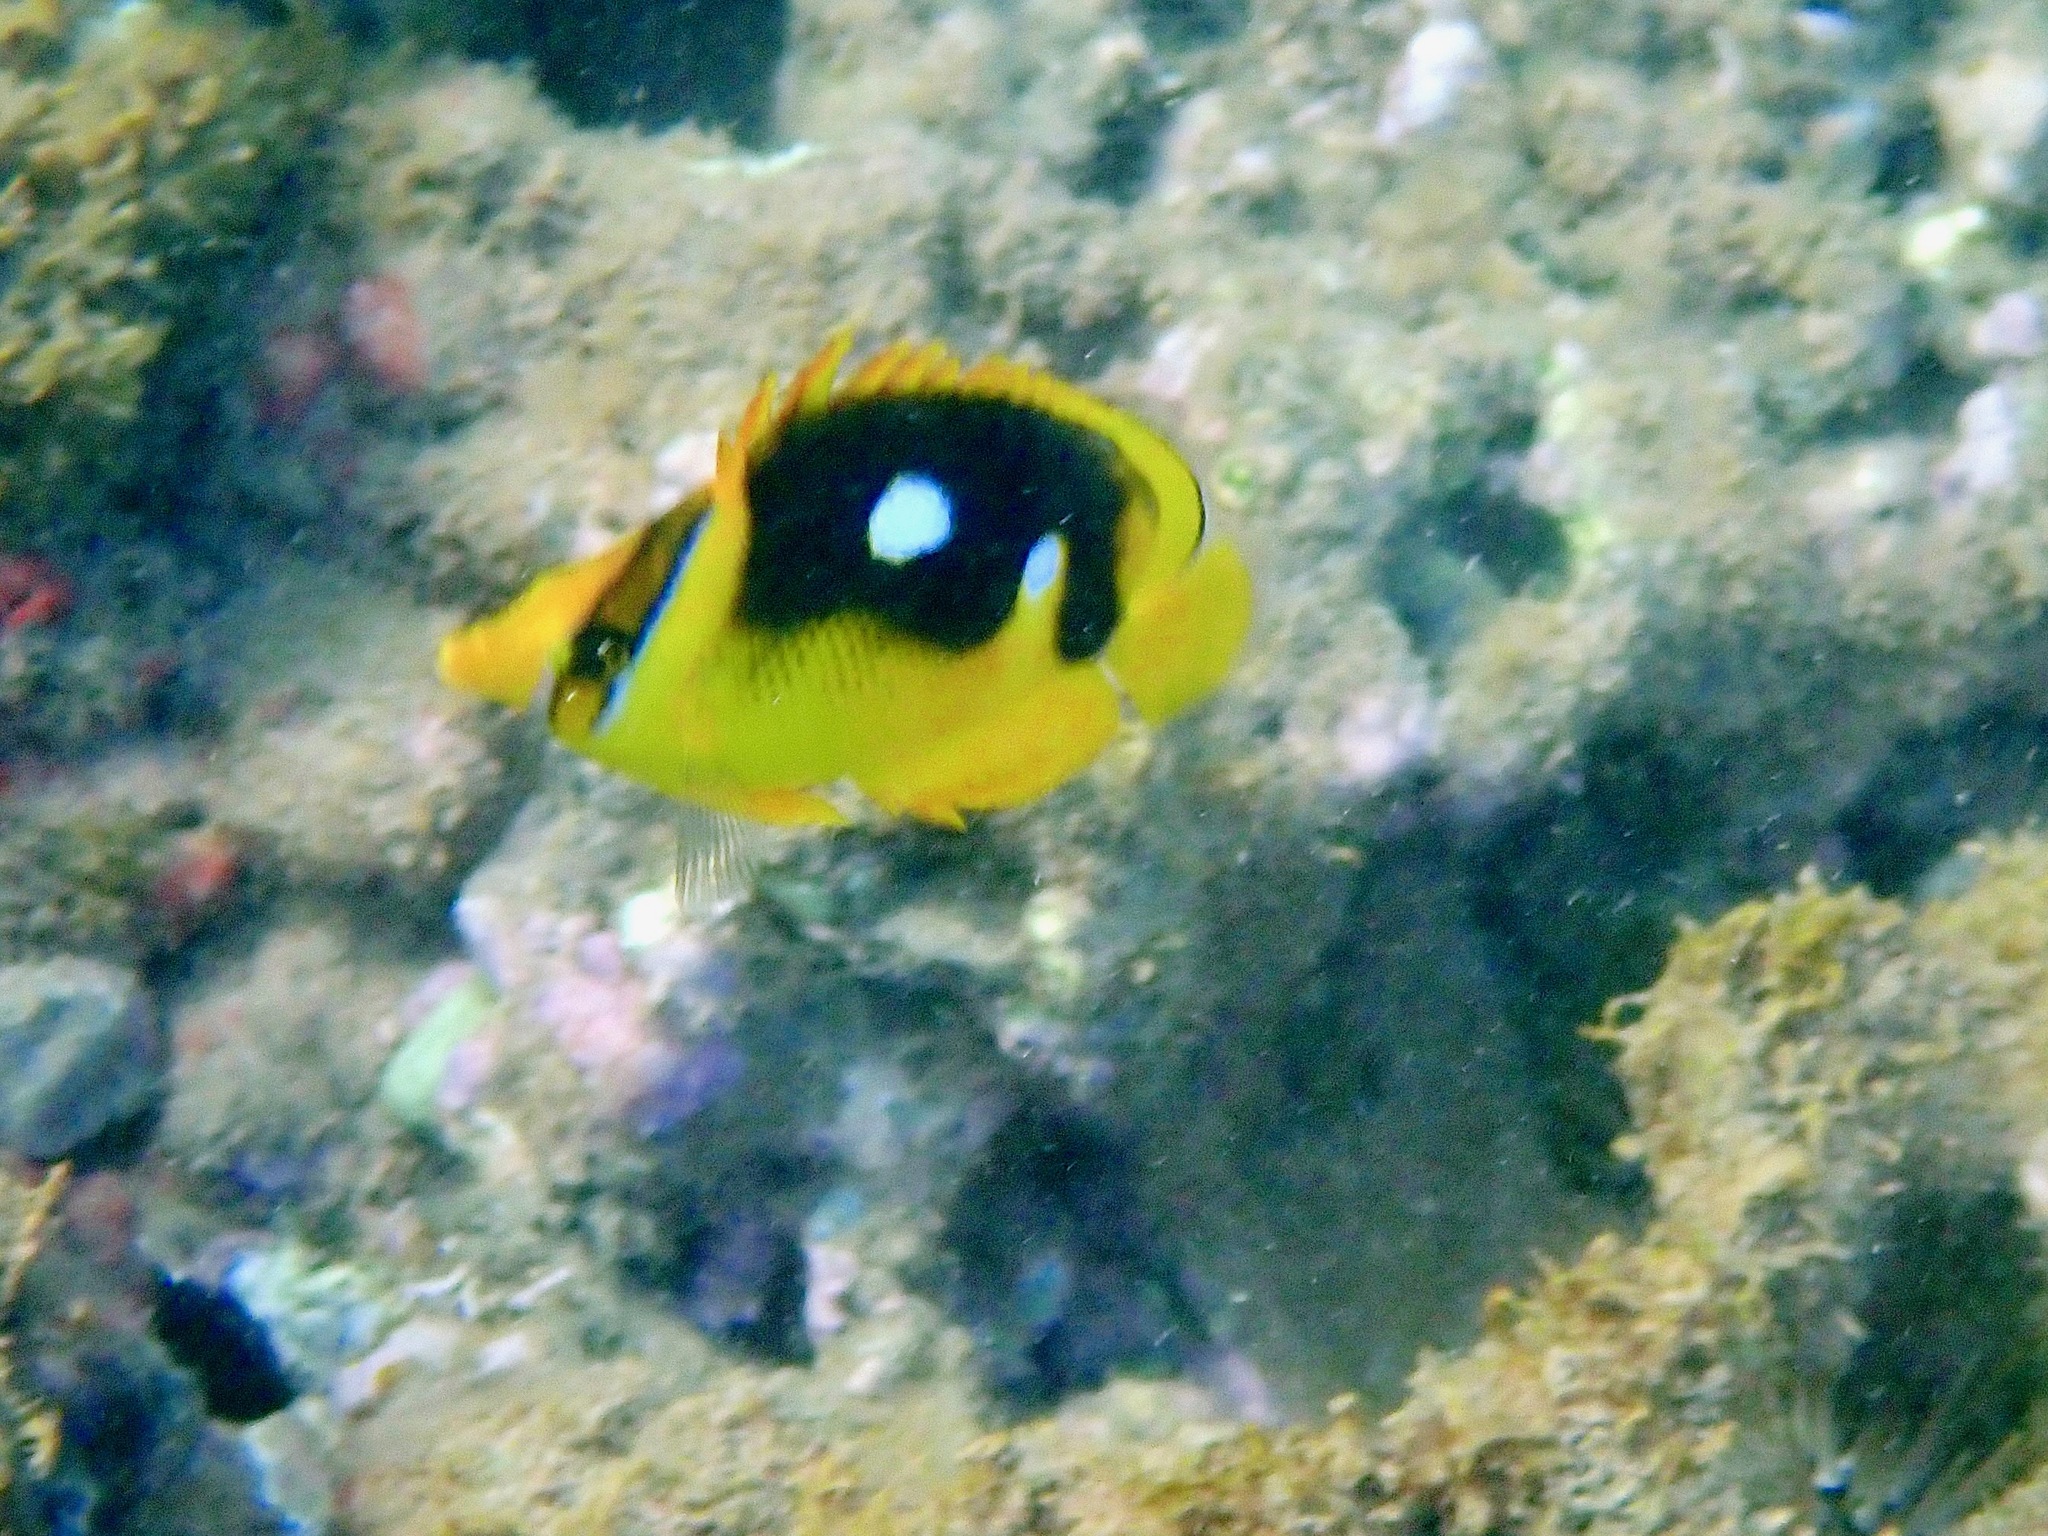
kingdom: Animalia
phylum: Chordata
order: Perciformes
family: Chaetodontidae
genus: Chaetodon
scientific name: Chaetodon quadrimaculatus
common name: Fourspot butterflyfish
